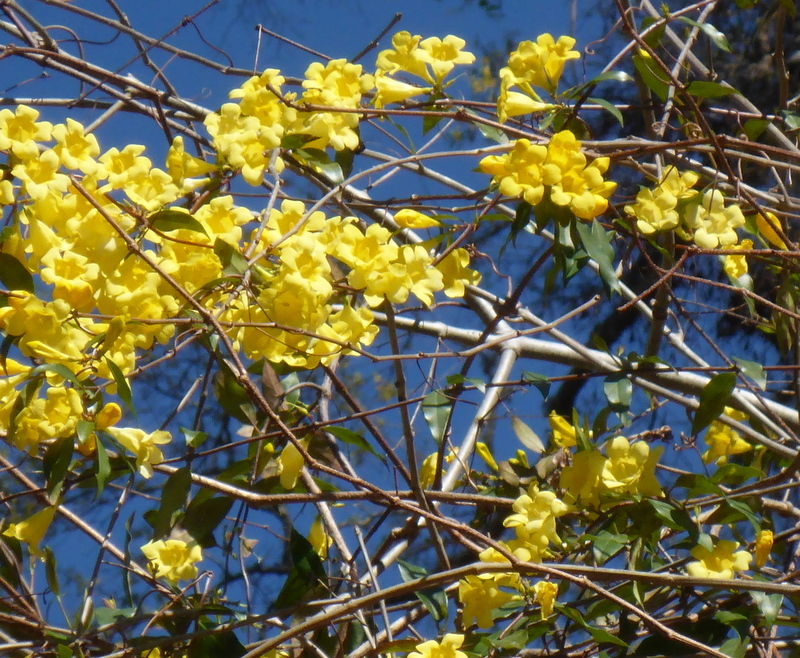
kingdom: Plantae
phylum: Tracheophyta
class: Magnoliopsida
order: Gentianales
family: Gelsemiaceae
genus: Gelsemium
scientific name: Gelsemium sempervirens
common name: Carolina-jasmine
